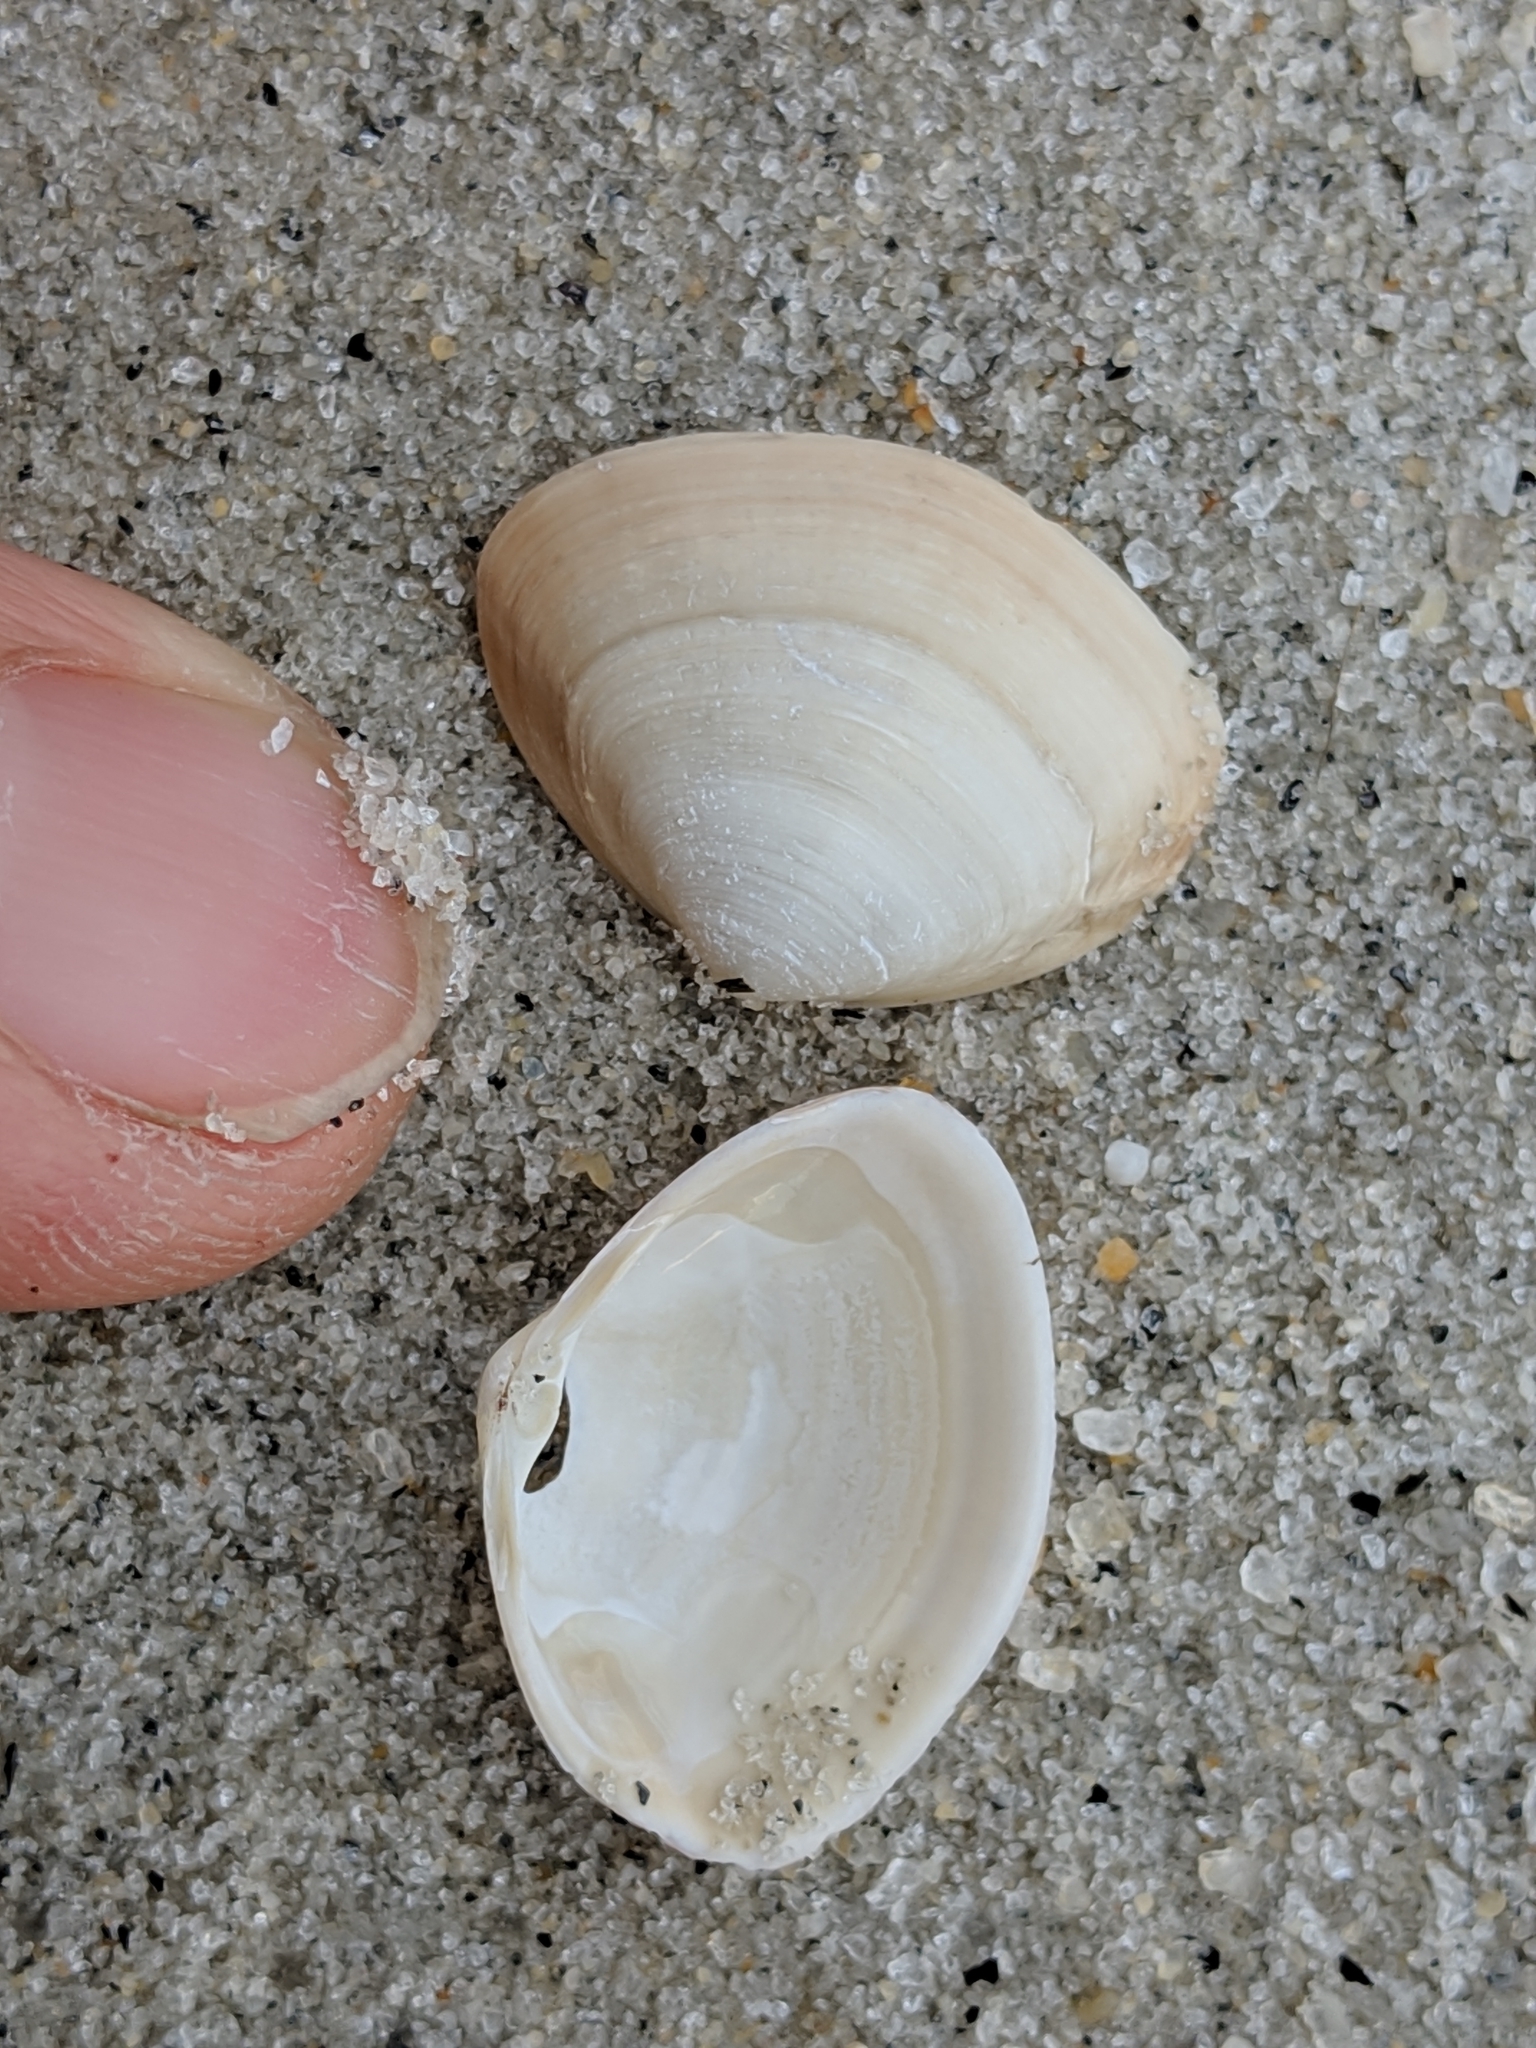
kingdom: Animalia
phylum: Mollusca
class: Bivalvia
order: Venerida
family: Mactridae
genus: Spisula
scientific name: Spisula solidissima
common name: Atlantic surf clam
